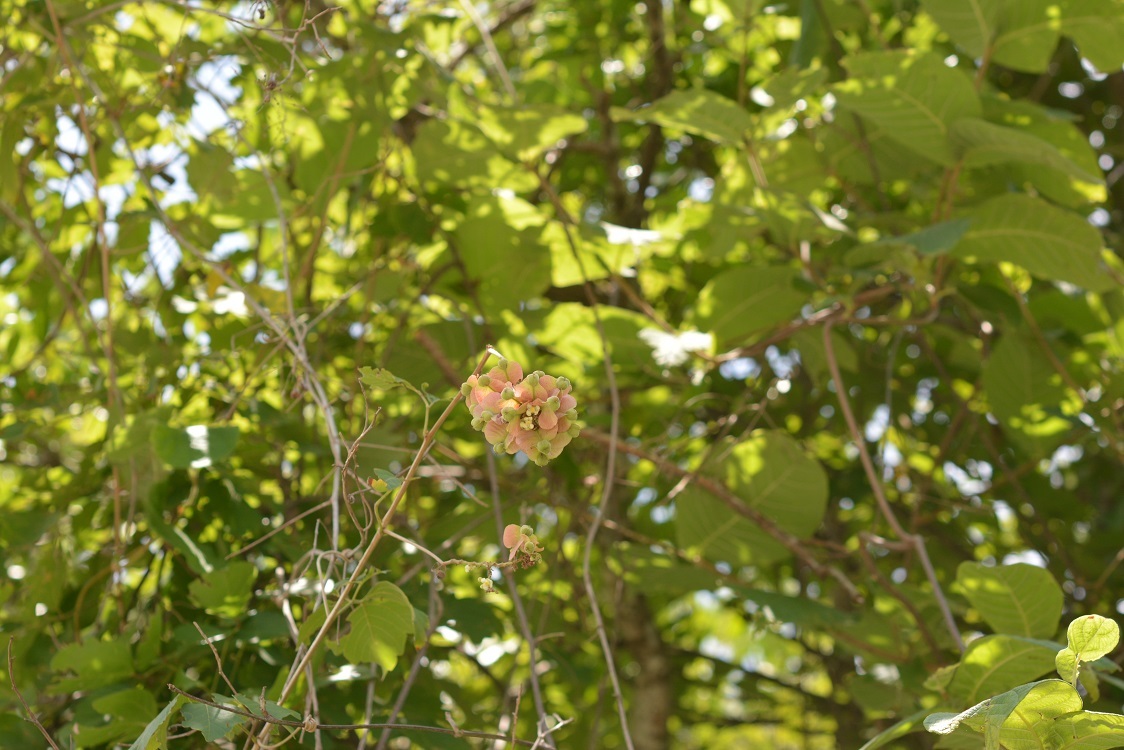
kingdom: Plantae
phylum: Tracheophyta
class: Magnoliopsida
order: Sapindales
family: Sapindaceae
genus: Serjania
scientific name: Serjania racemosa
